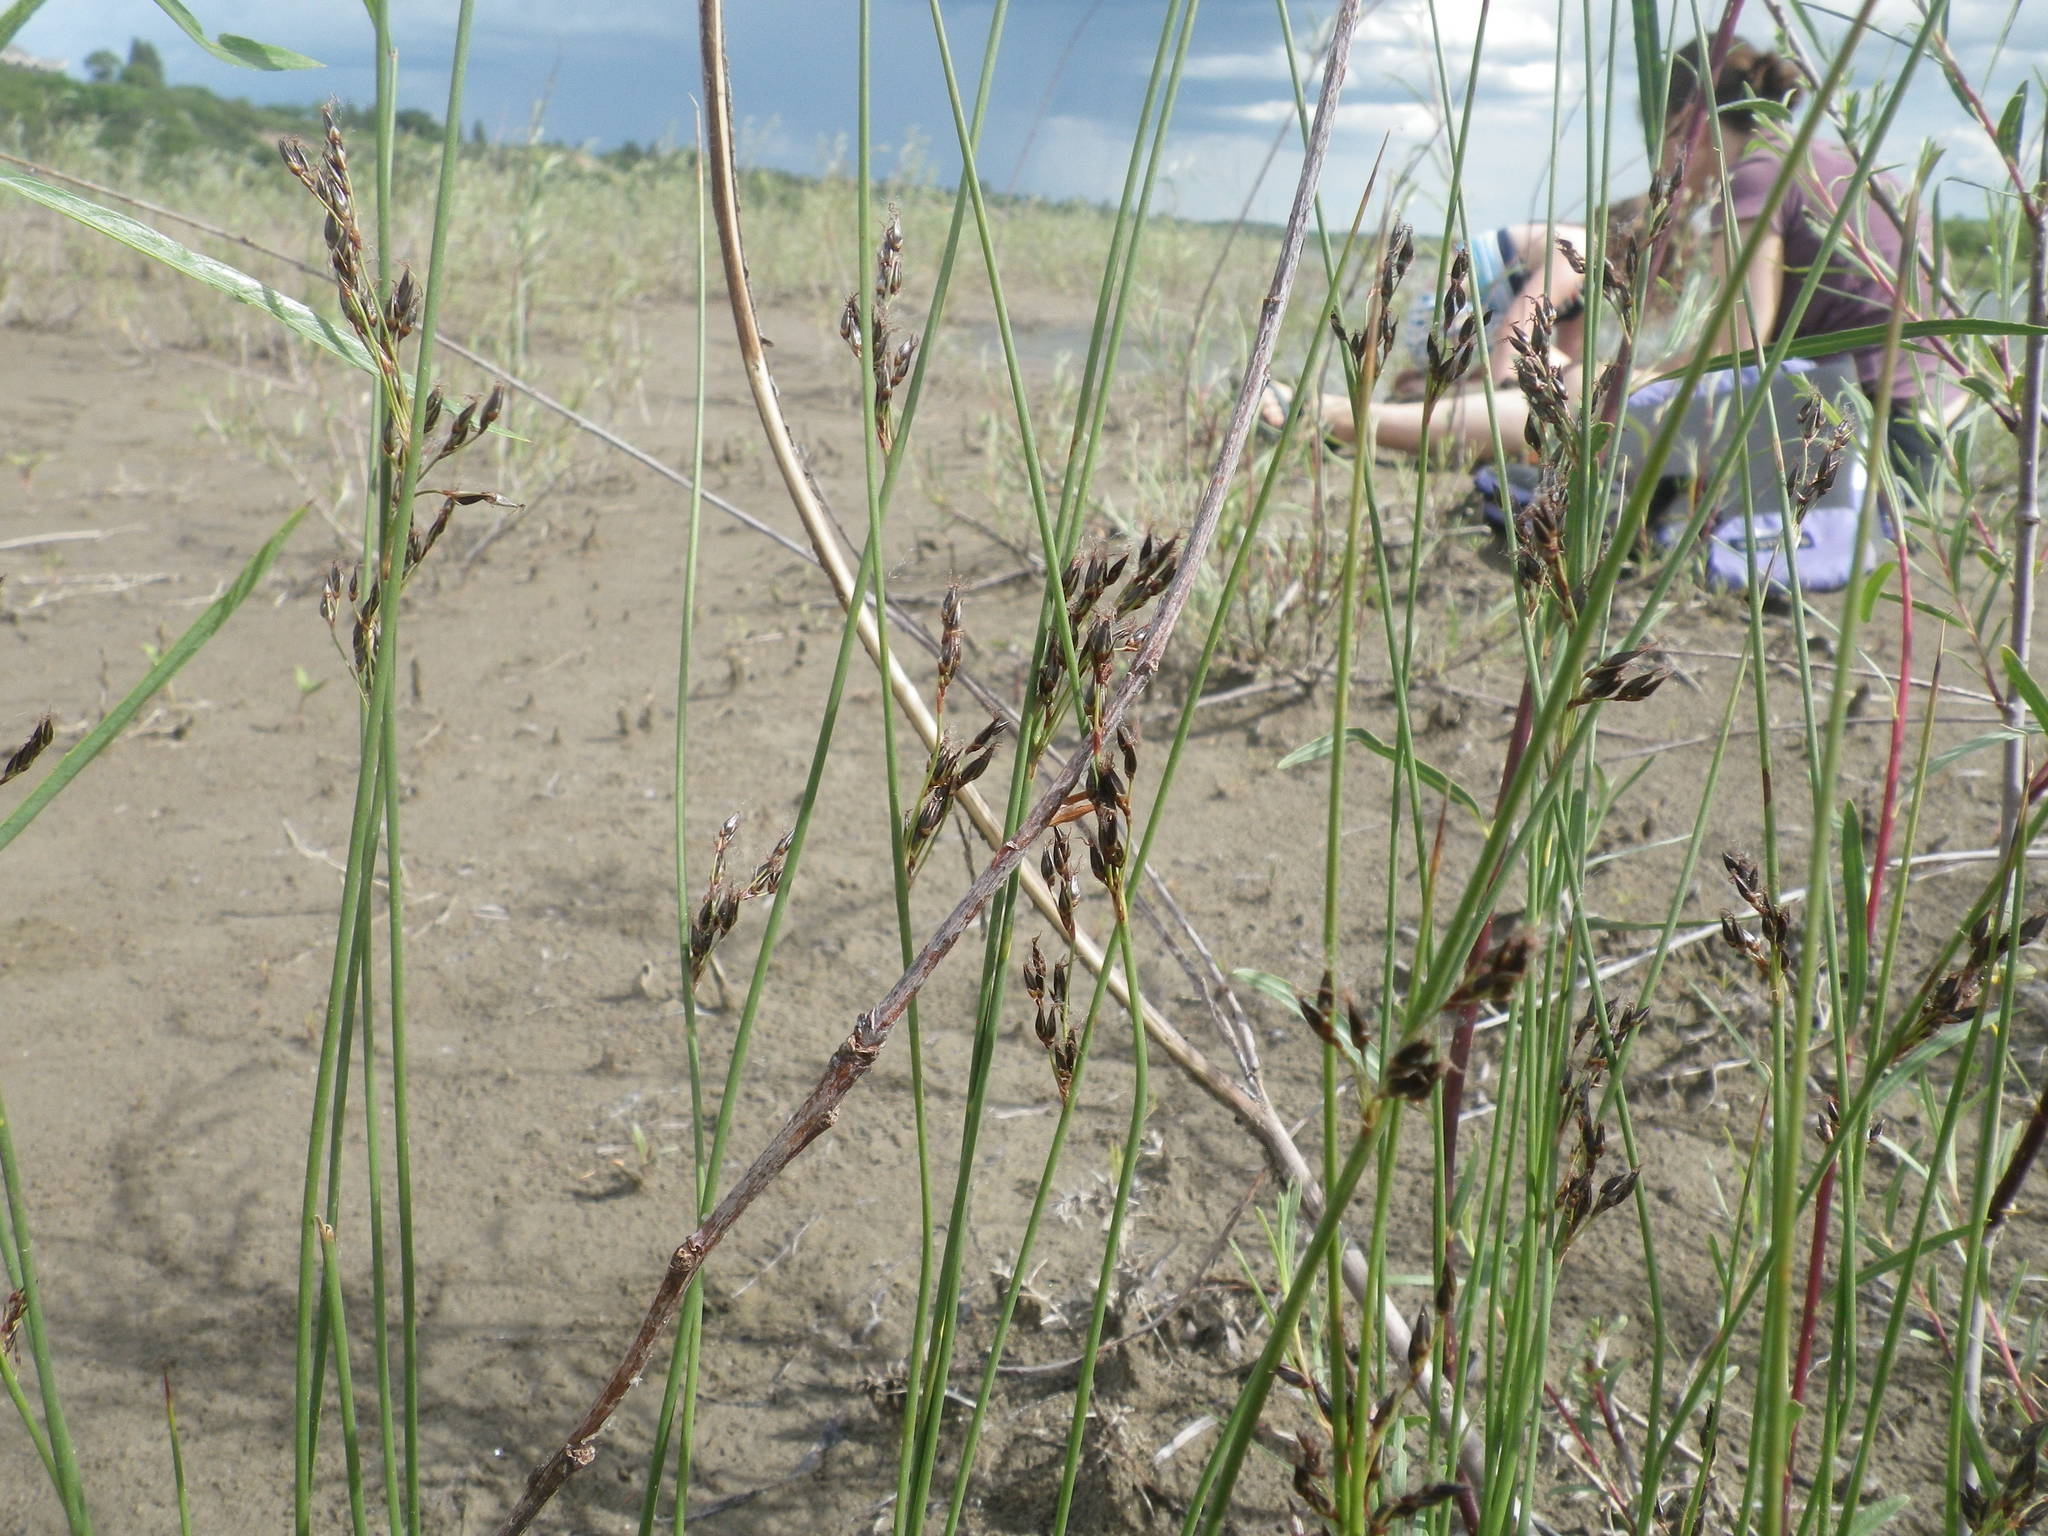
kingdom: Plantae
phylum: Tracheophyta
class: Liliopsida
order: Poales
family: Juncaceae
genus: Juncus
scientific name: Juncus balticus
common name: Baltic rush
